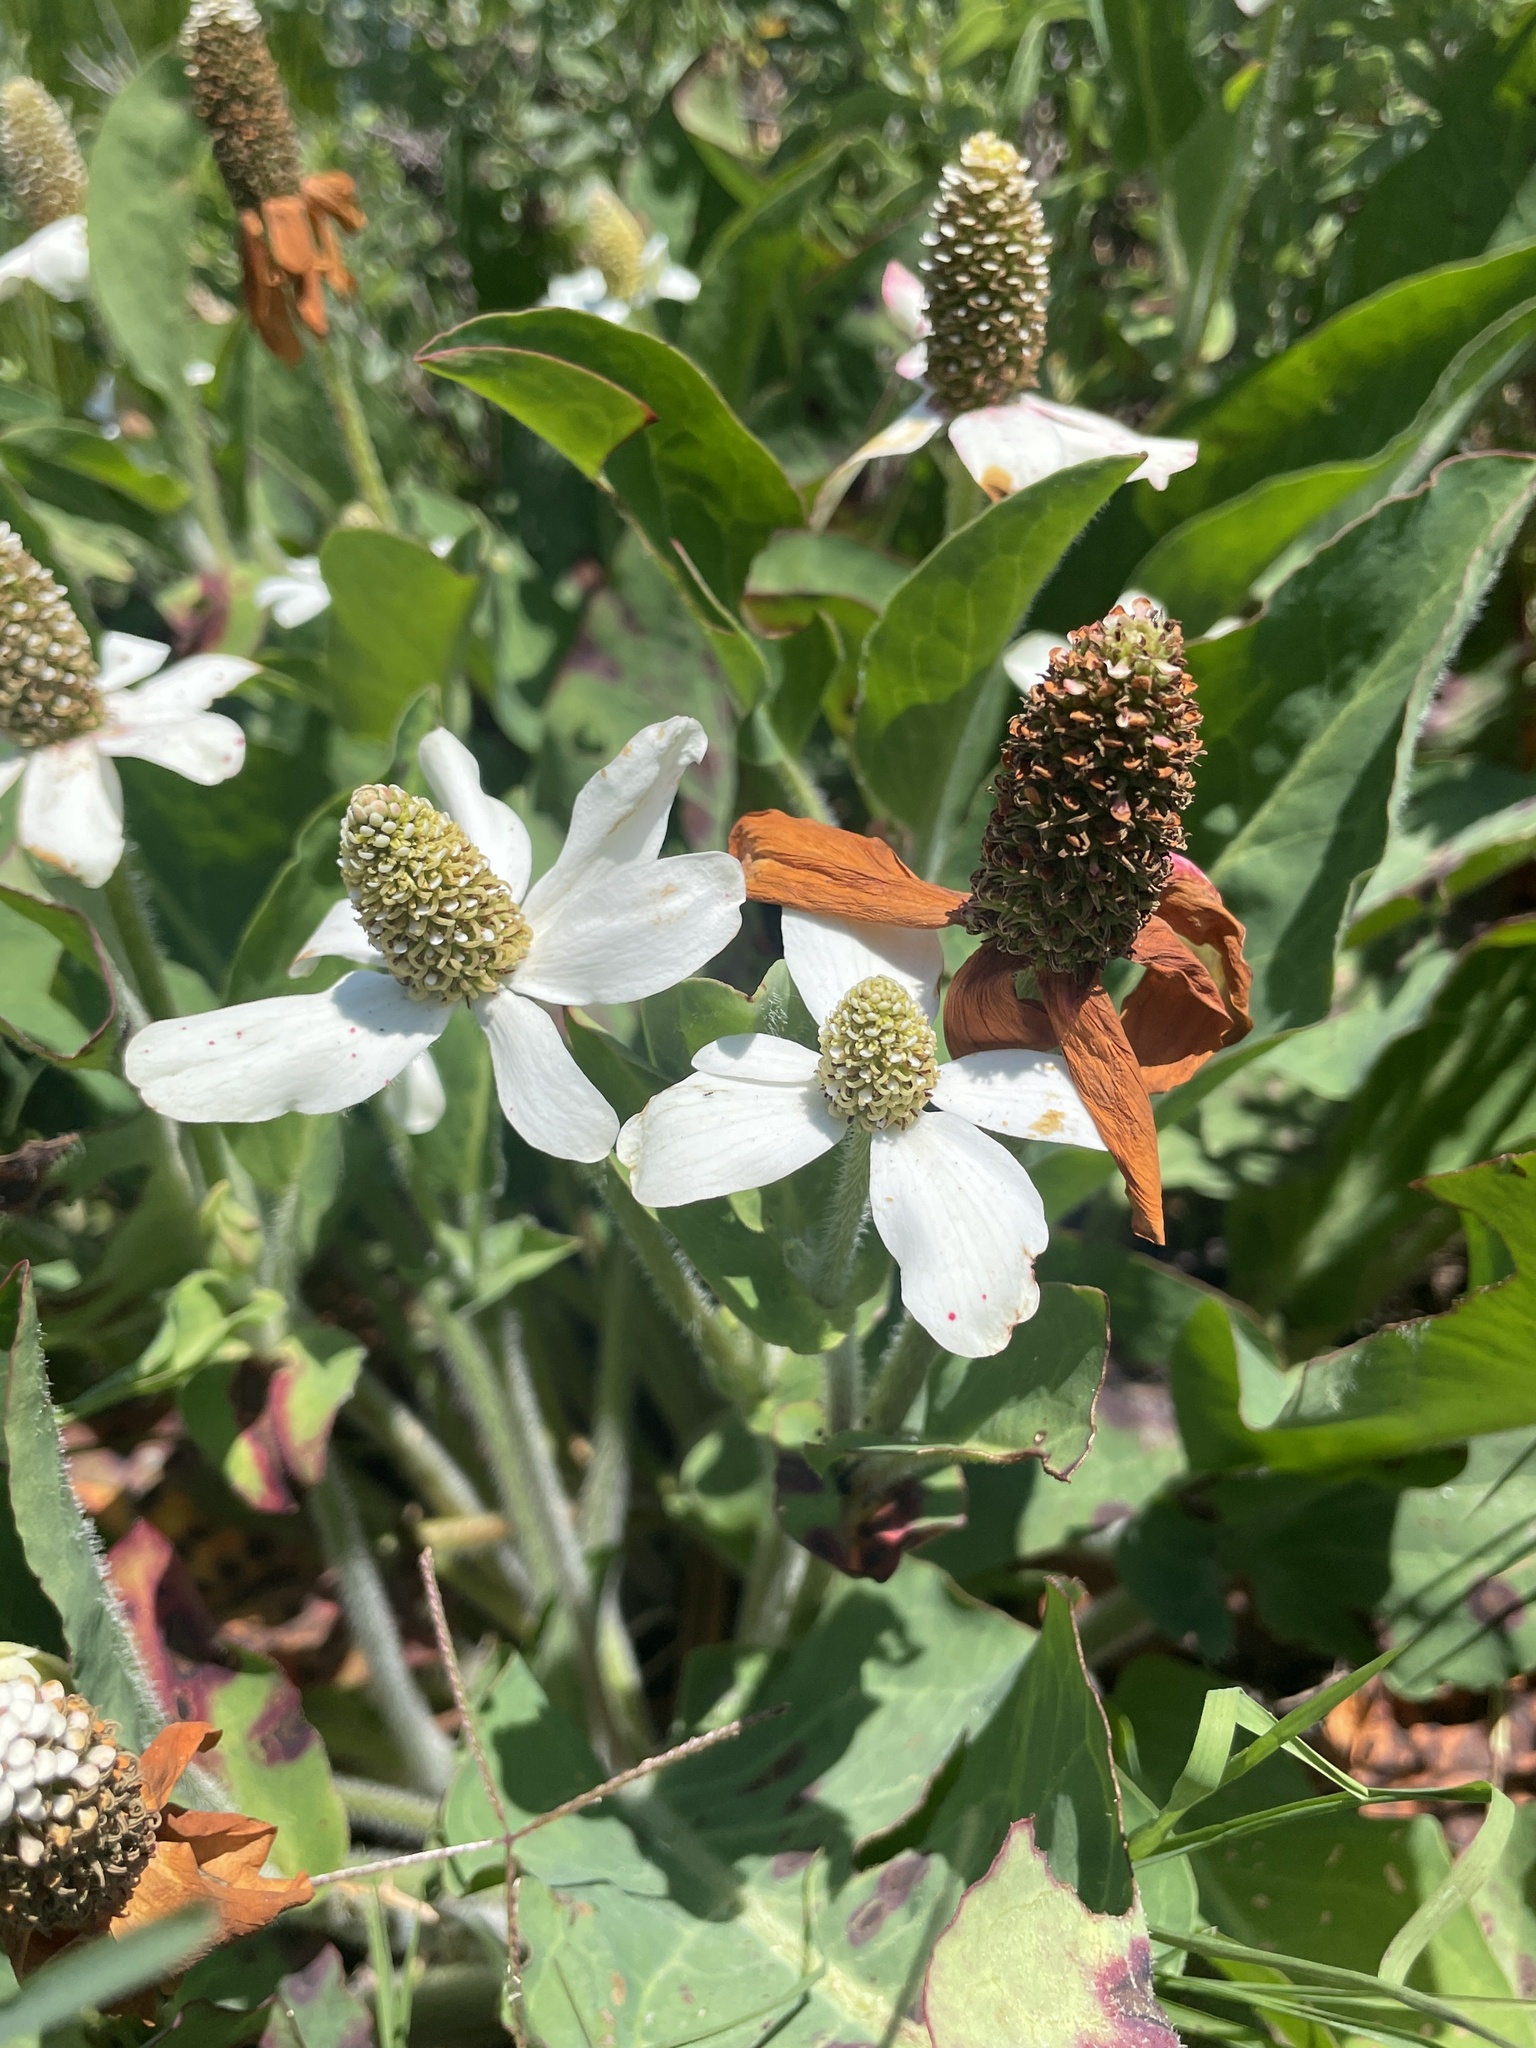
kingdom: Plantae
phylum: Tracheophyta
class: Magnoliopsida
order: Piperales
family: Saururaceae
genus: Anemopsis
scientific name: Anemopsis californica
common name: Apache-beads
